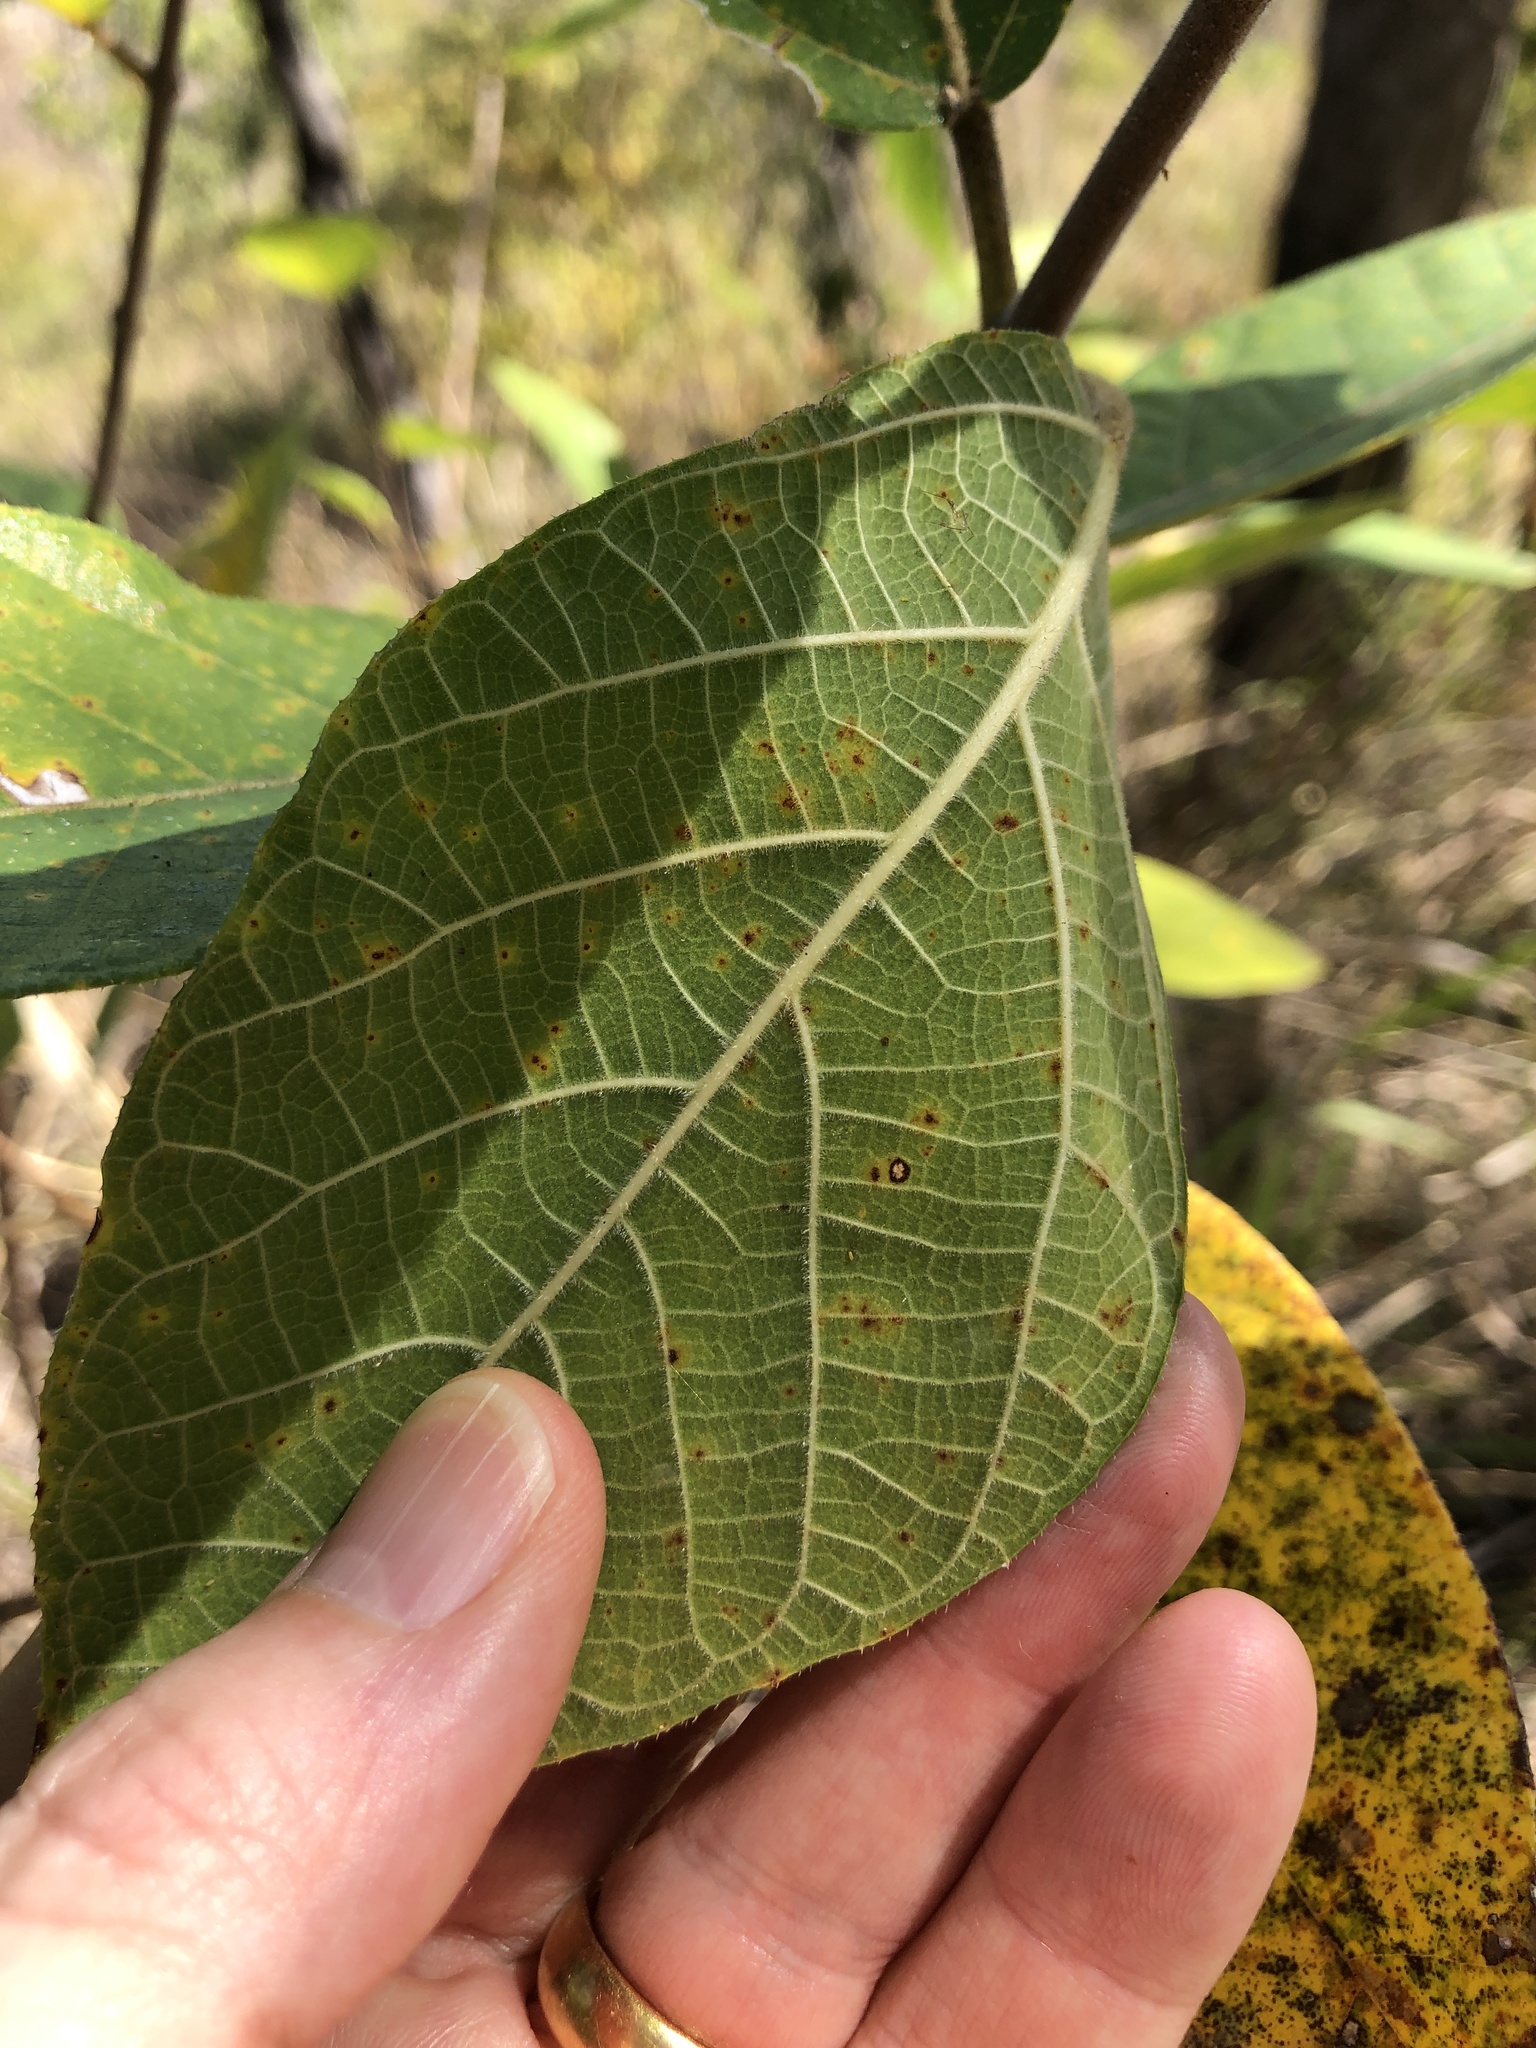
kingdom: Plantae
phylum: Tracheophyta
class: Magnoliopsida
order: Rosales
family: Moraceae
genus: Ficus
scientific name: Ficus opposita
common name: Figwood
